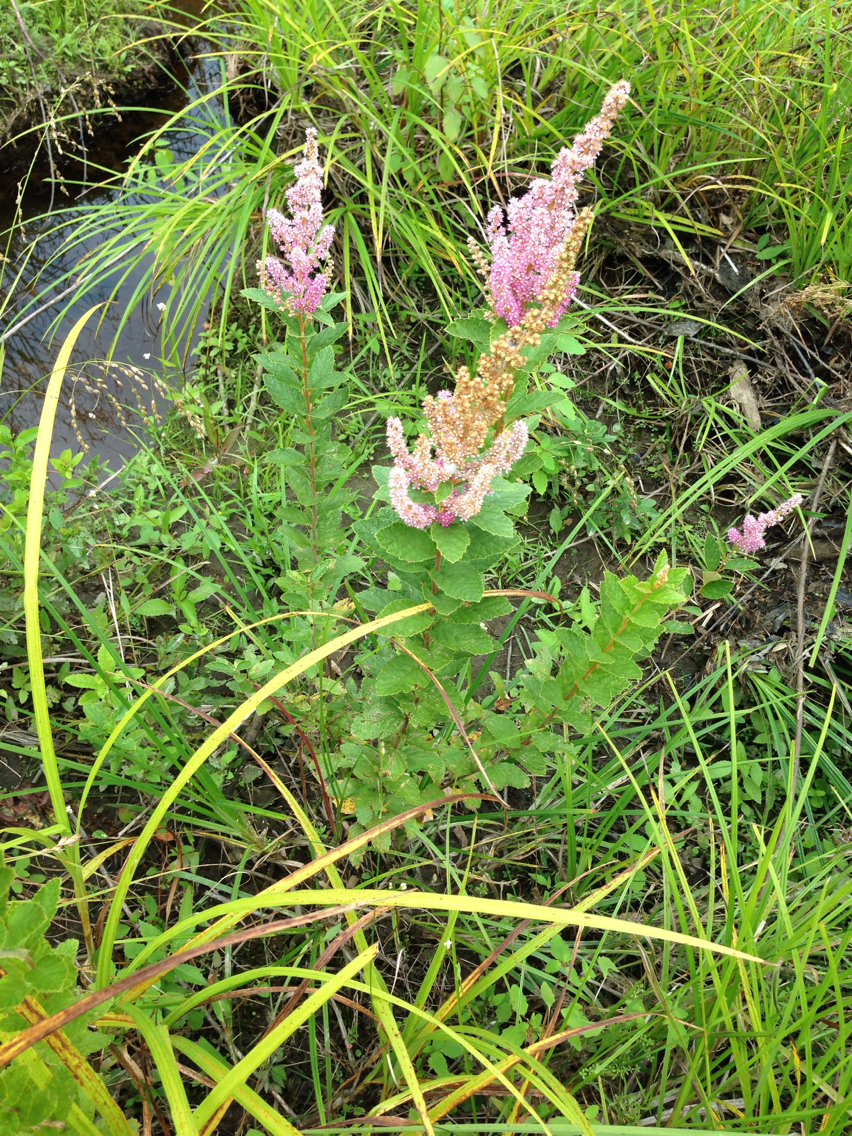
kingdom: Plantae
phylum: Tracheophyta
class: Magnoliopsida
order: Rosales
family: Rosaceae
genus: Spiraea
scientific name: Spiraea tomentosa
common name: Hardhack
